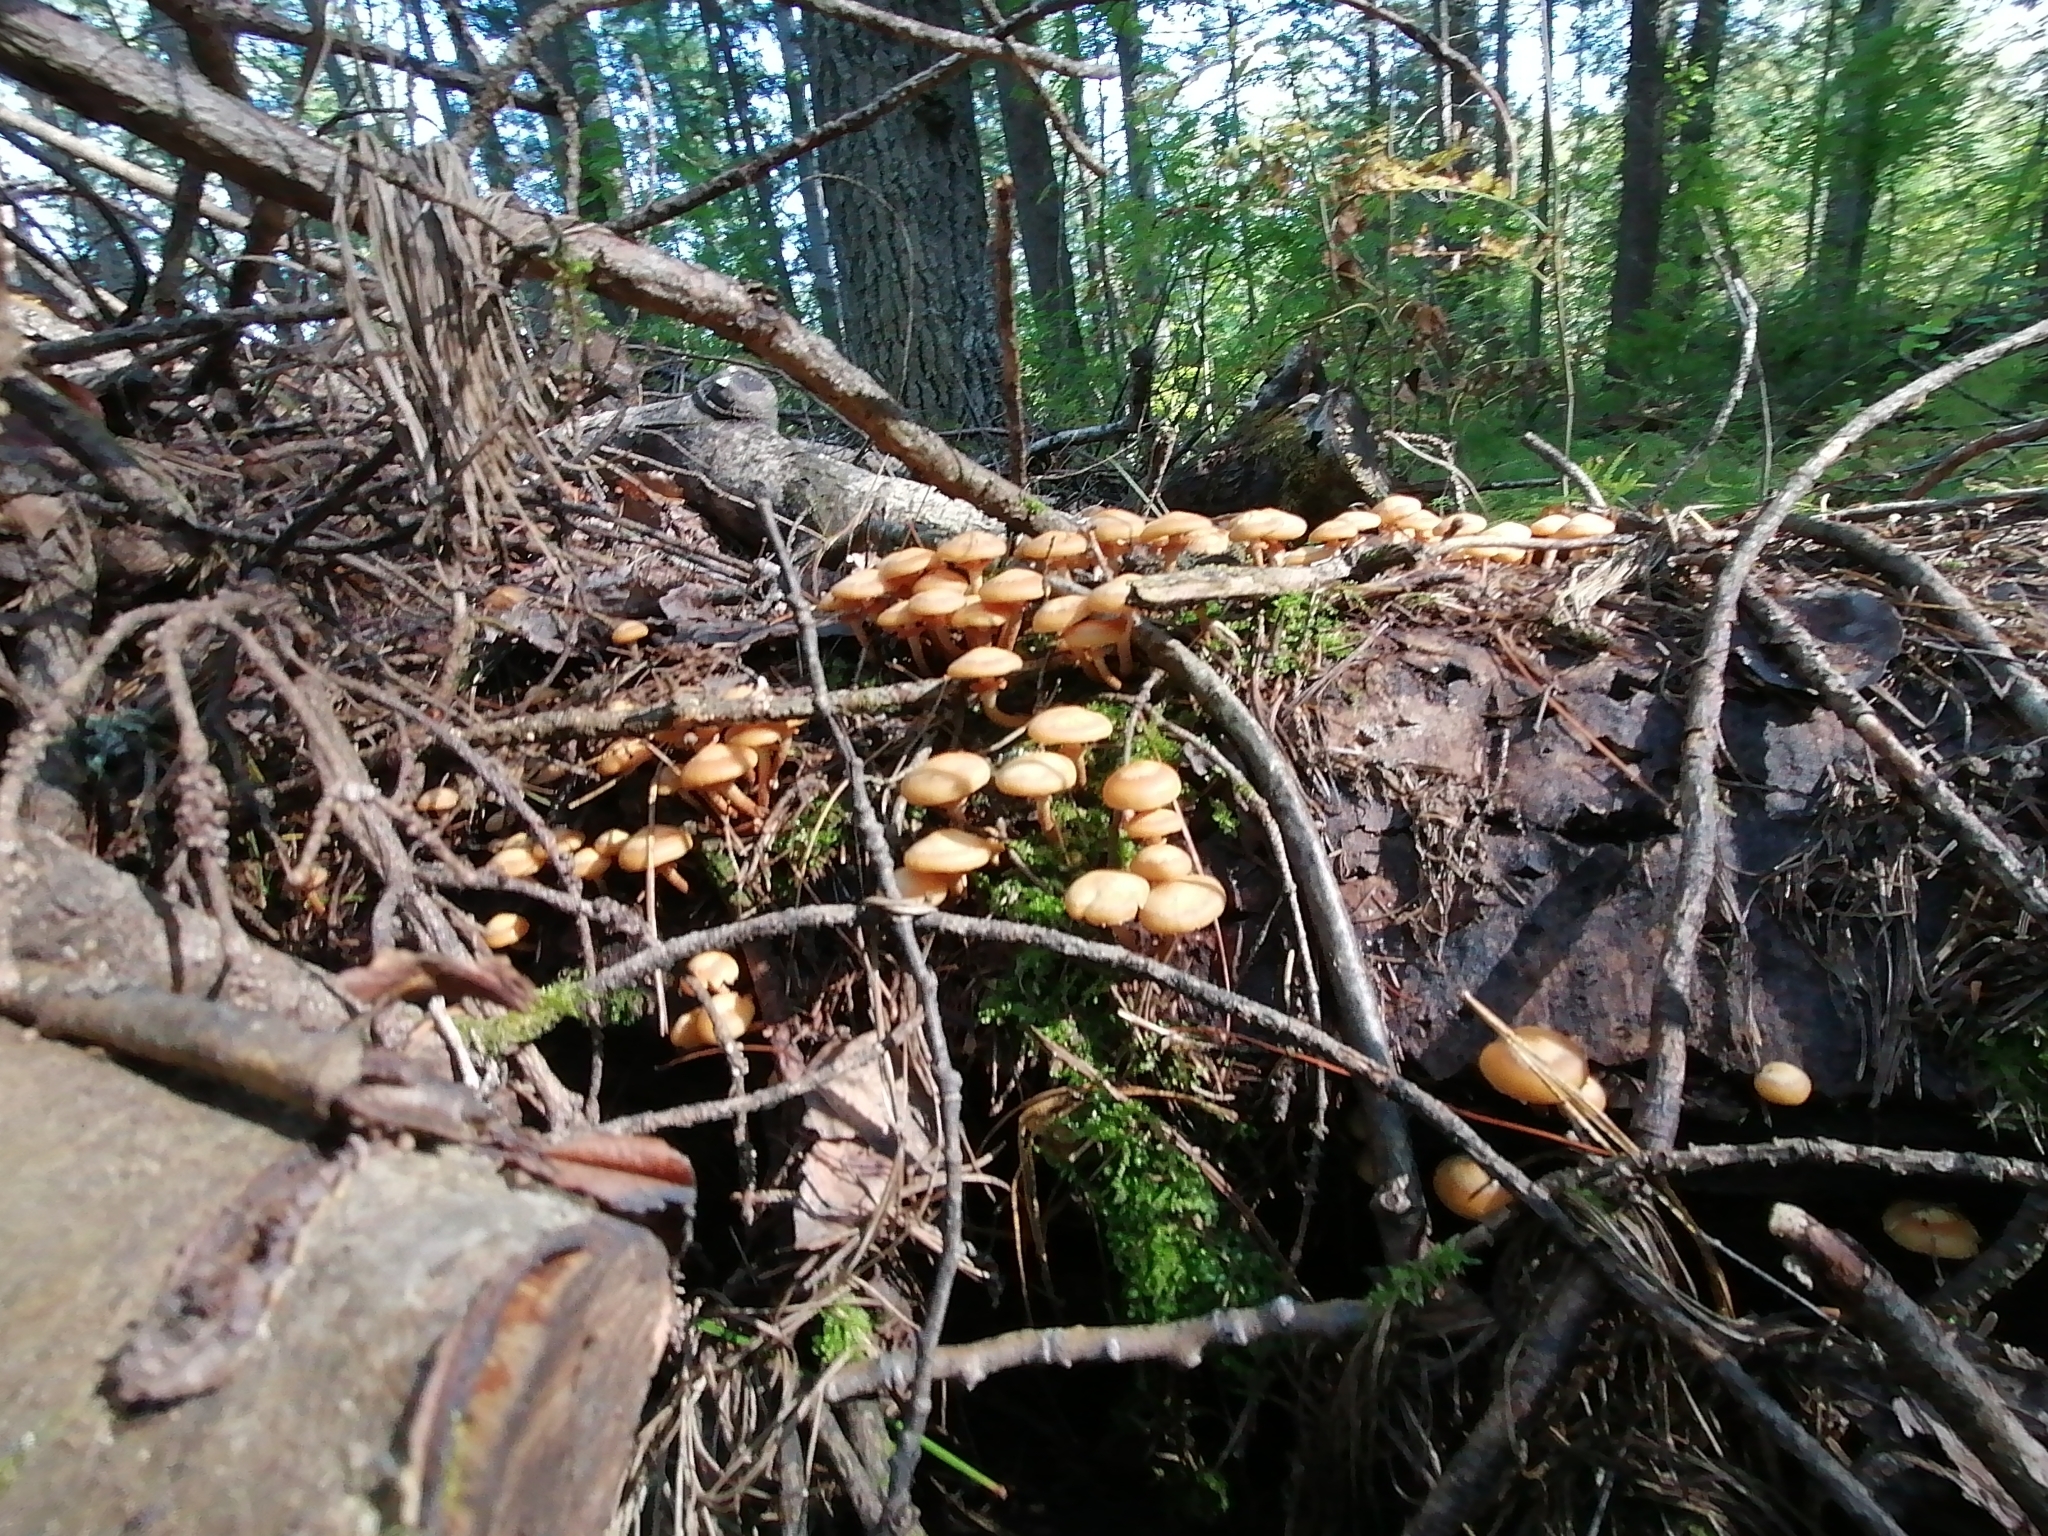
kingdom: Fungi
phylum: Basidiomycota
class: Agaricomycetes
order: Agaricales
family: Strophariaceae
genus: Kuehneromyces
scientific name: Kuehneromyces mutabilis
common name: Sheathed woodtuft
